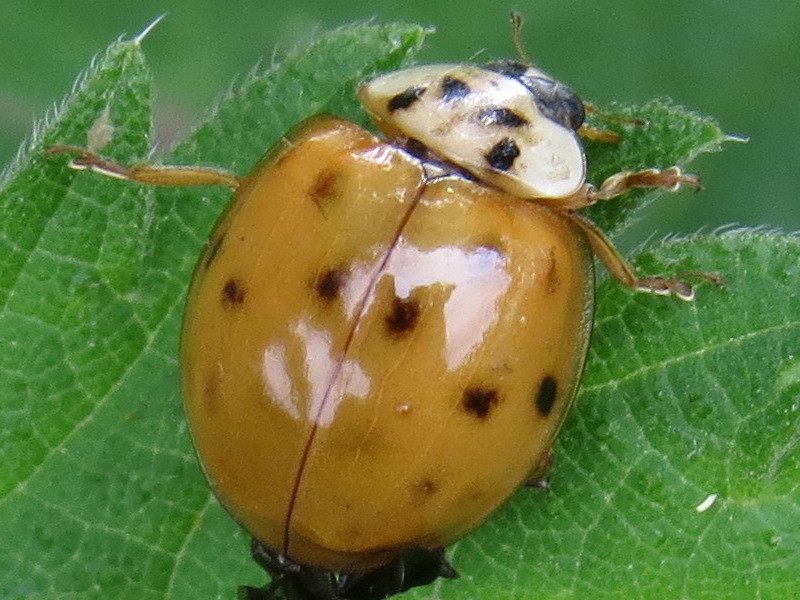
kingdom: Animalia
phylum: Arthropoda
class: Insecta
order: Coleoptera
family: Coccinellidae
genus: Harmonia
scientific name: Harmonia axyridis
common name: Harlequin ladybird
